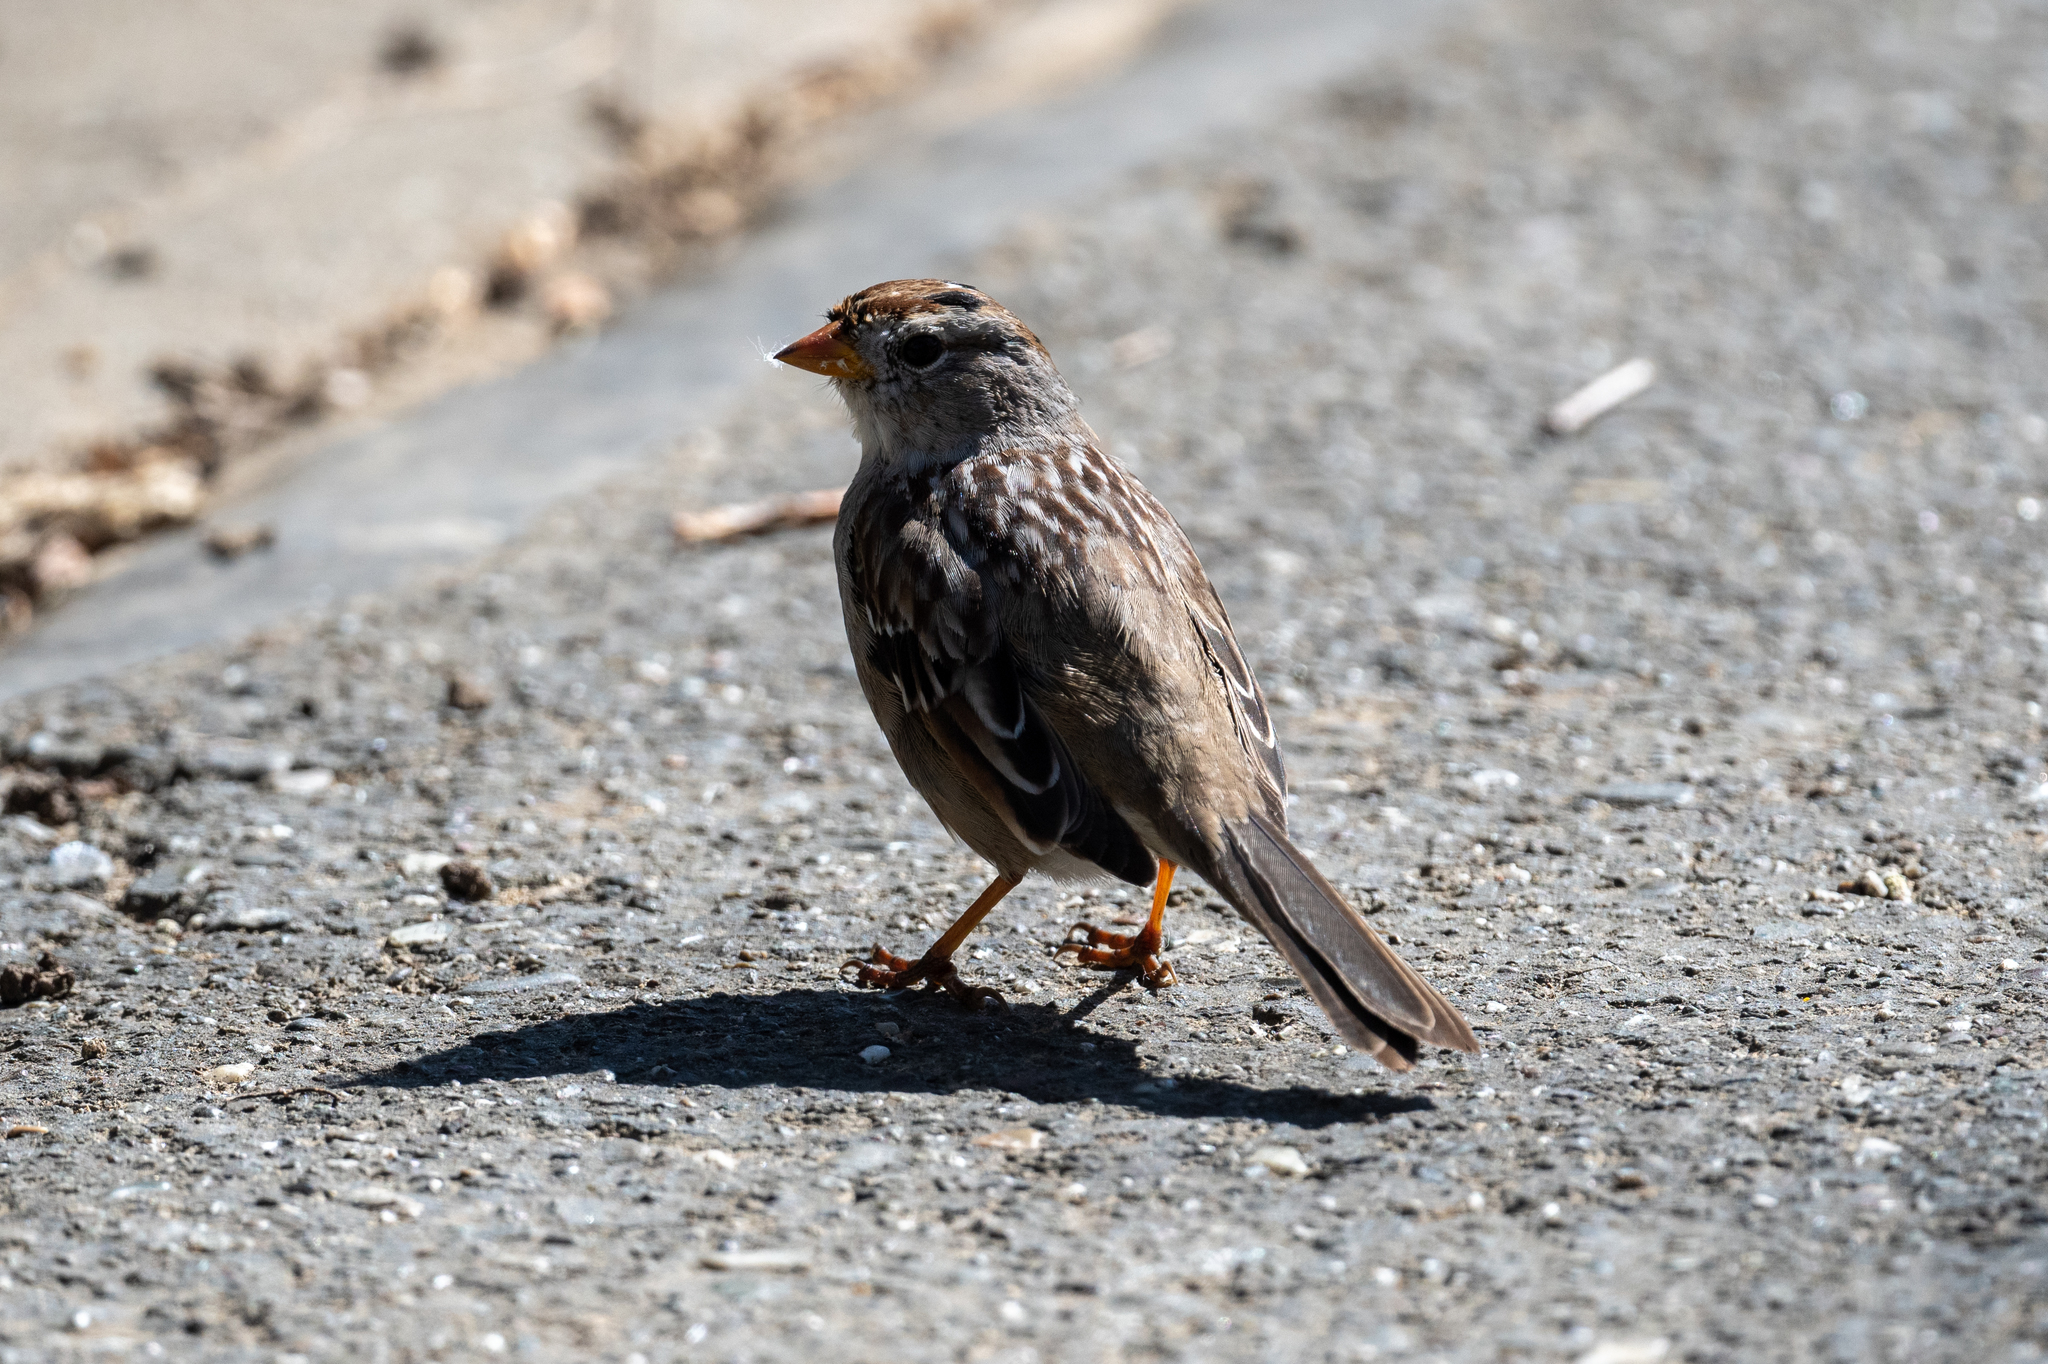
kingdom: Animalia
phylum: Chordata
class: Aves
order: Passeriformes
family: Passerellidae
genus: Zonotrichia
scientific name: Zonotrichia leucophrys
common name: White-crowned sparrow
